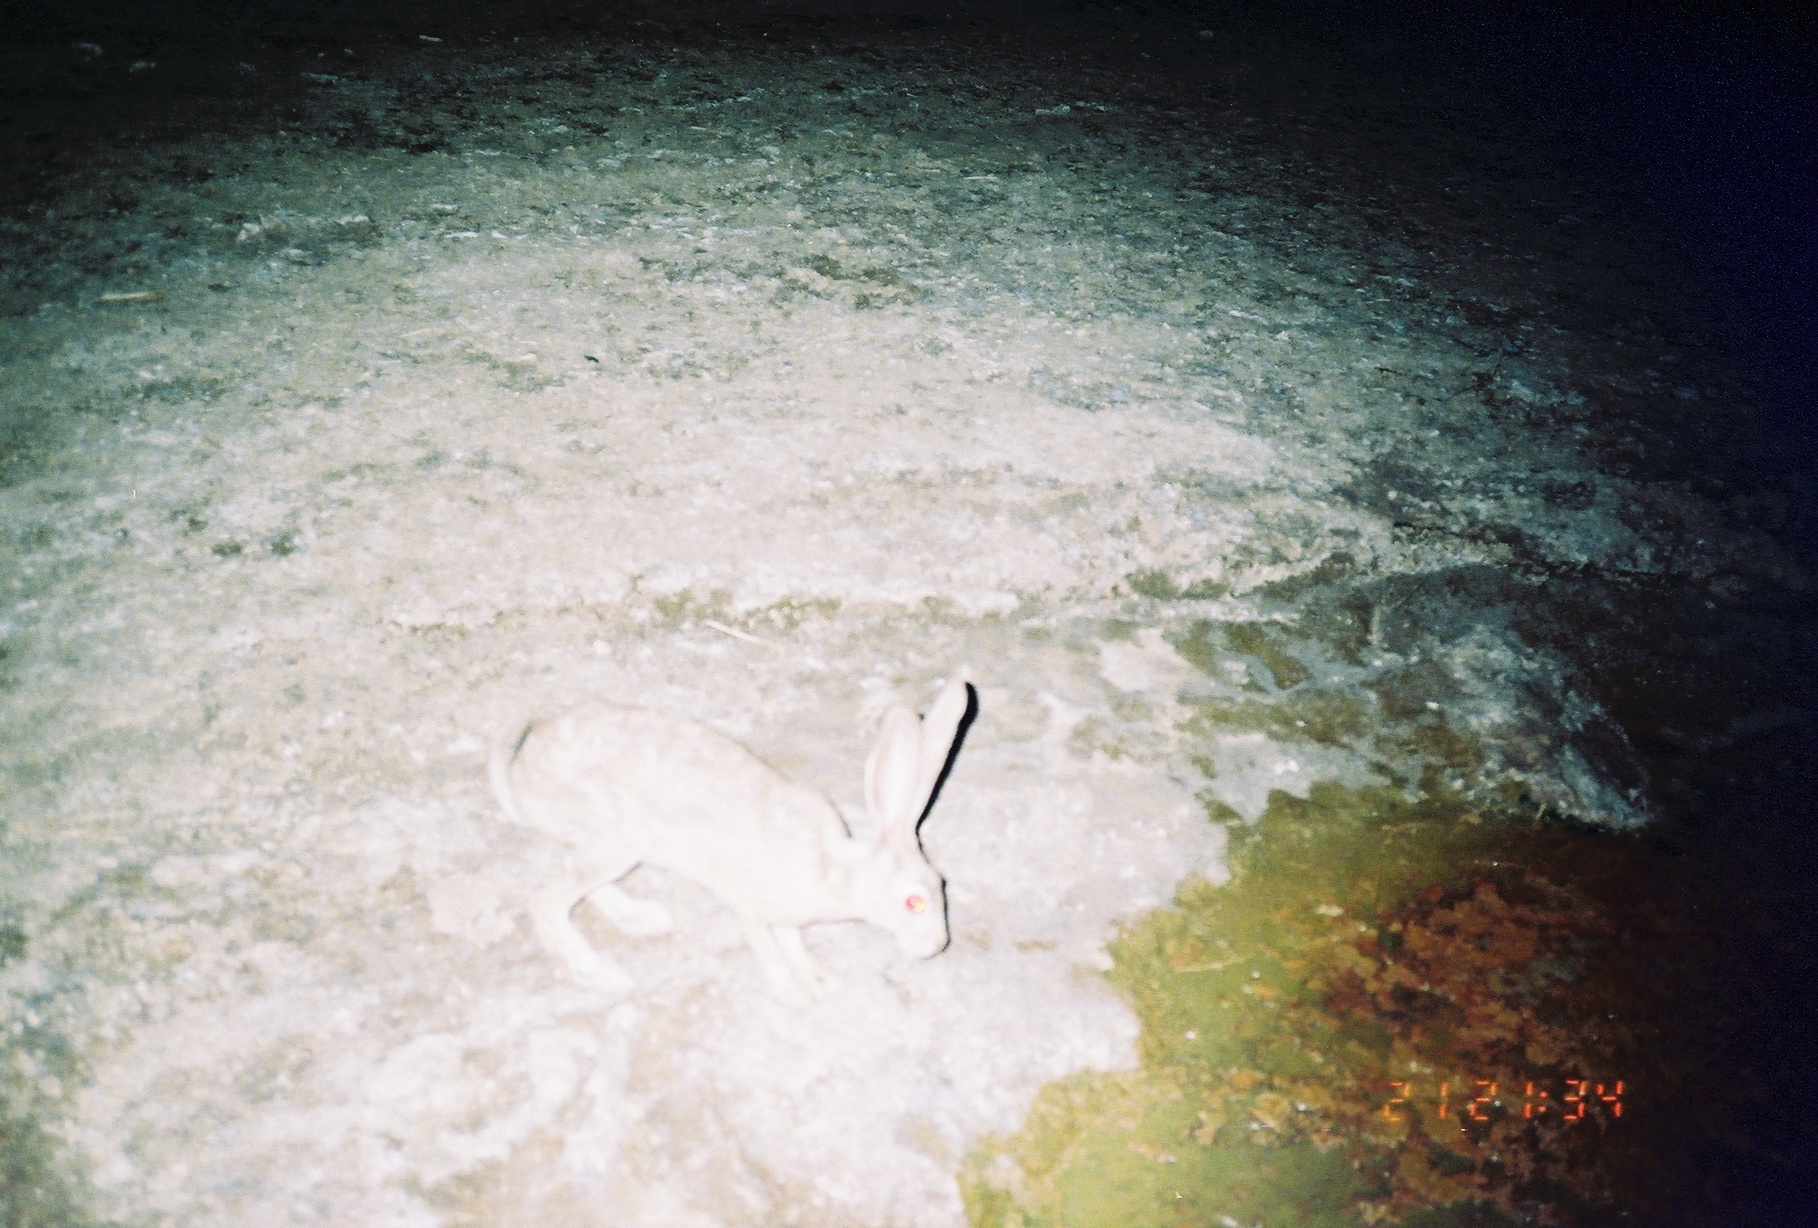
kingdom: Animalia
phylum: Chordata
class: Mammalia
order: Lagomorpha
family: Leporidae
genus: Lepus
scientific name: Lepus californicus
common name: Black-tailed jackrabbit
